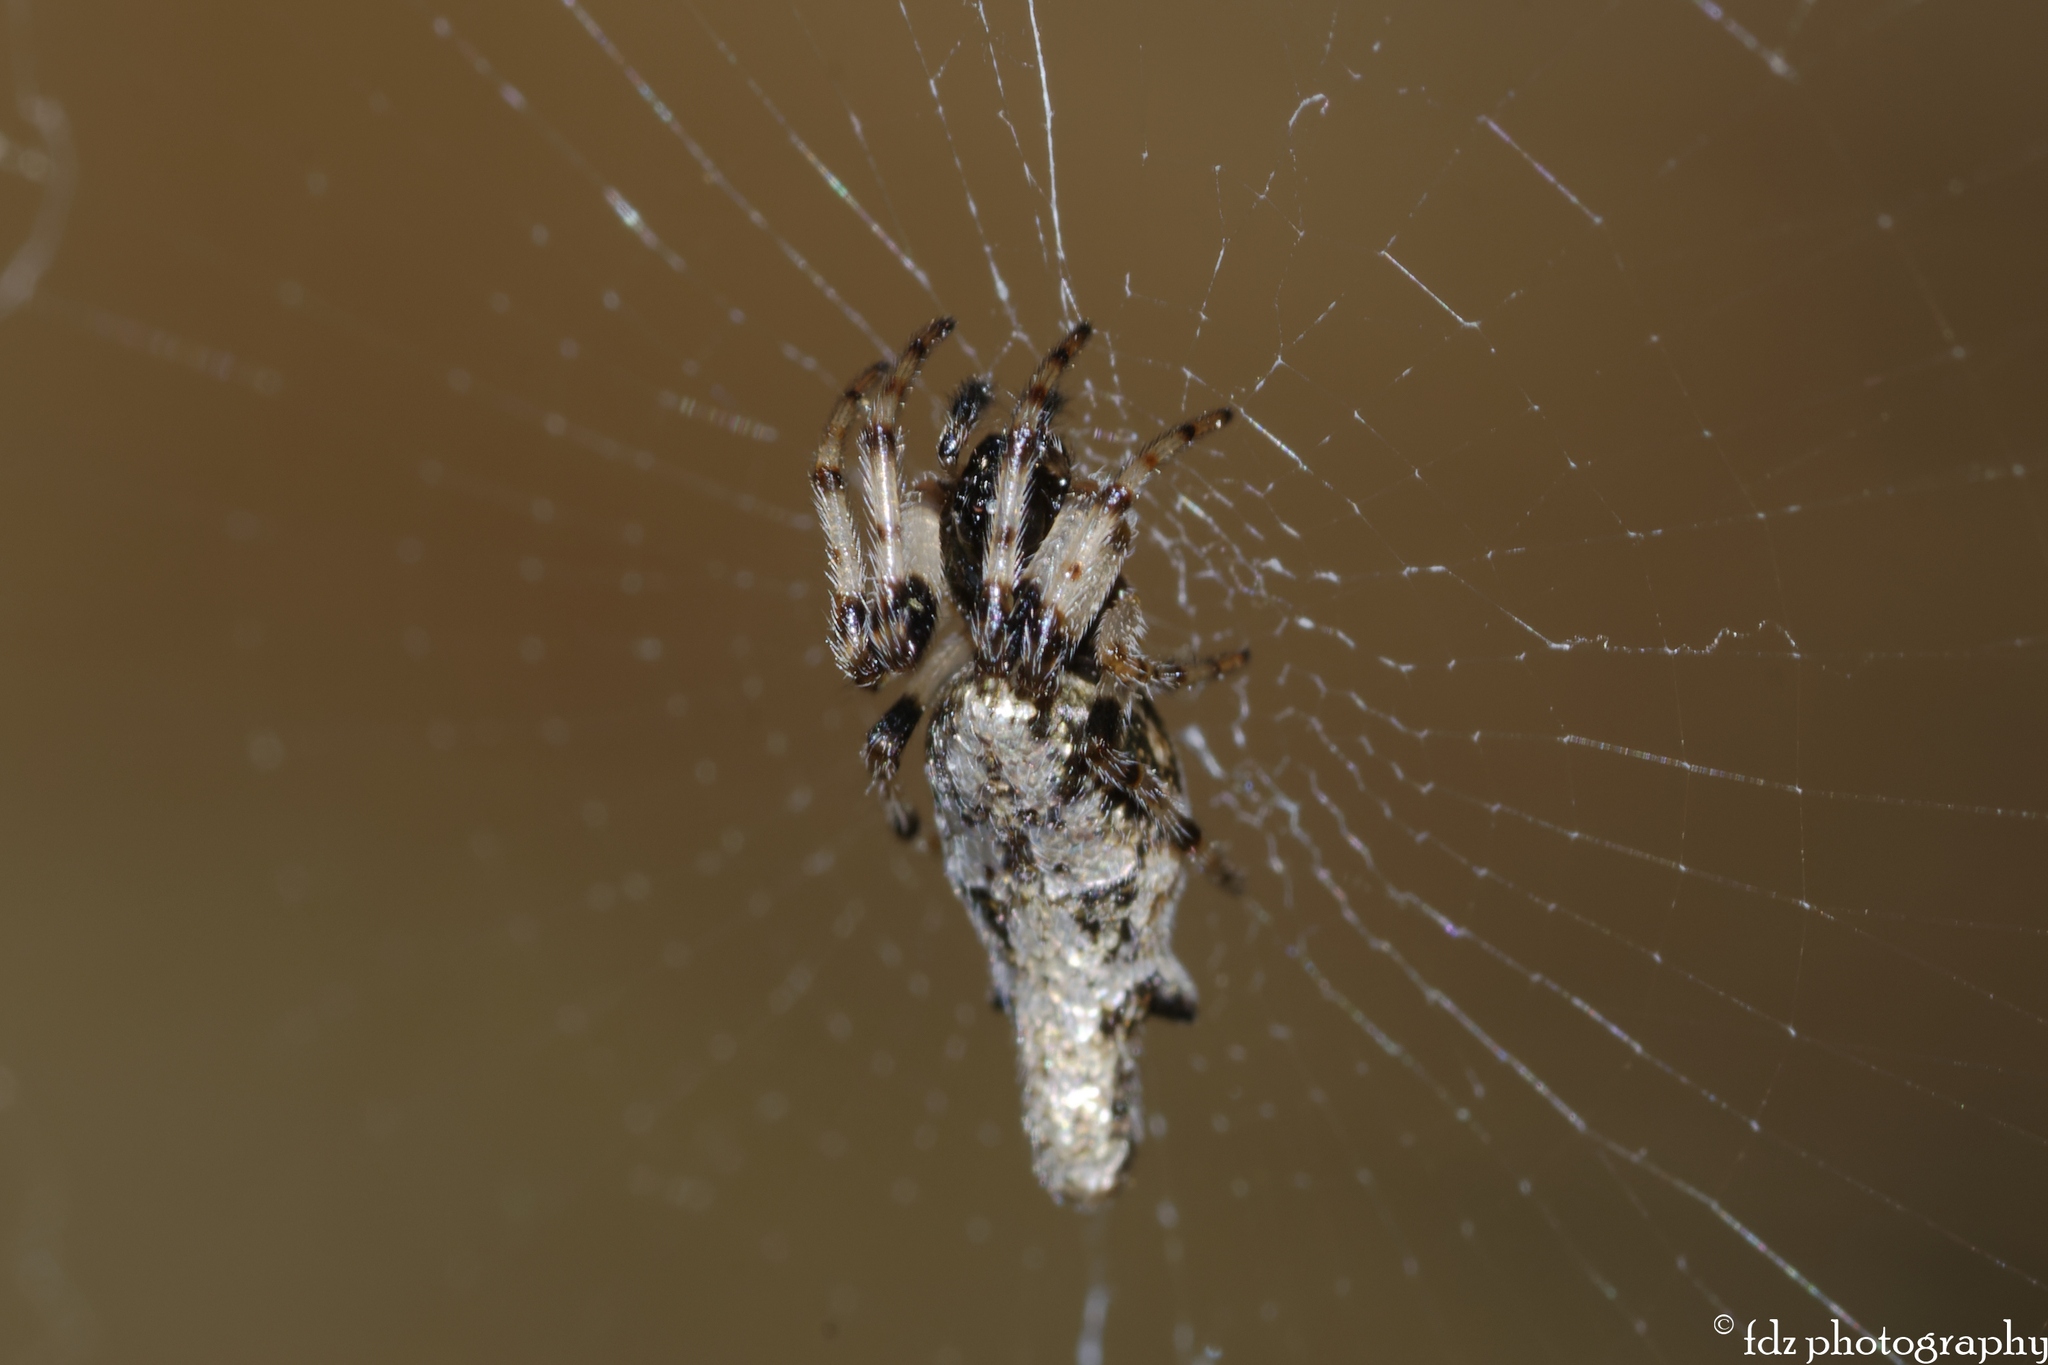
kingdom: Animalia
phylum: Arthropoda
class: Arachnida
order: Araneae
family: Araneidae
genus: Cyclosa
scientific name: Cyclosa insulana
